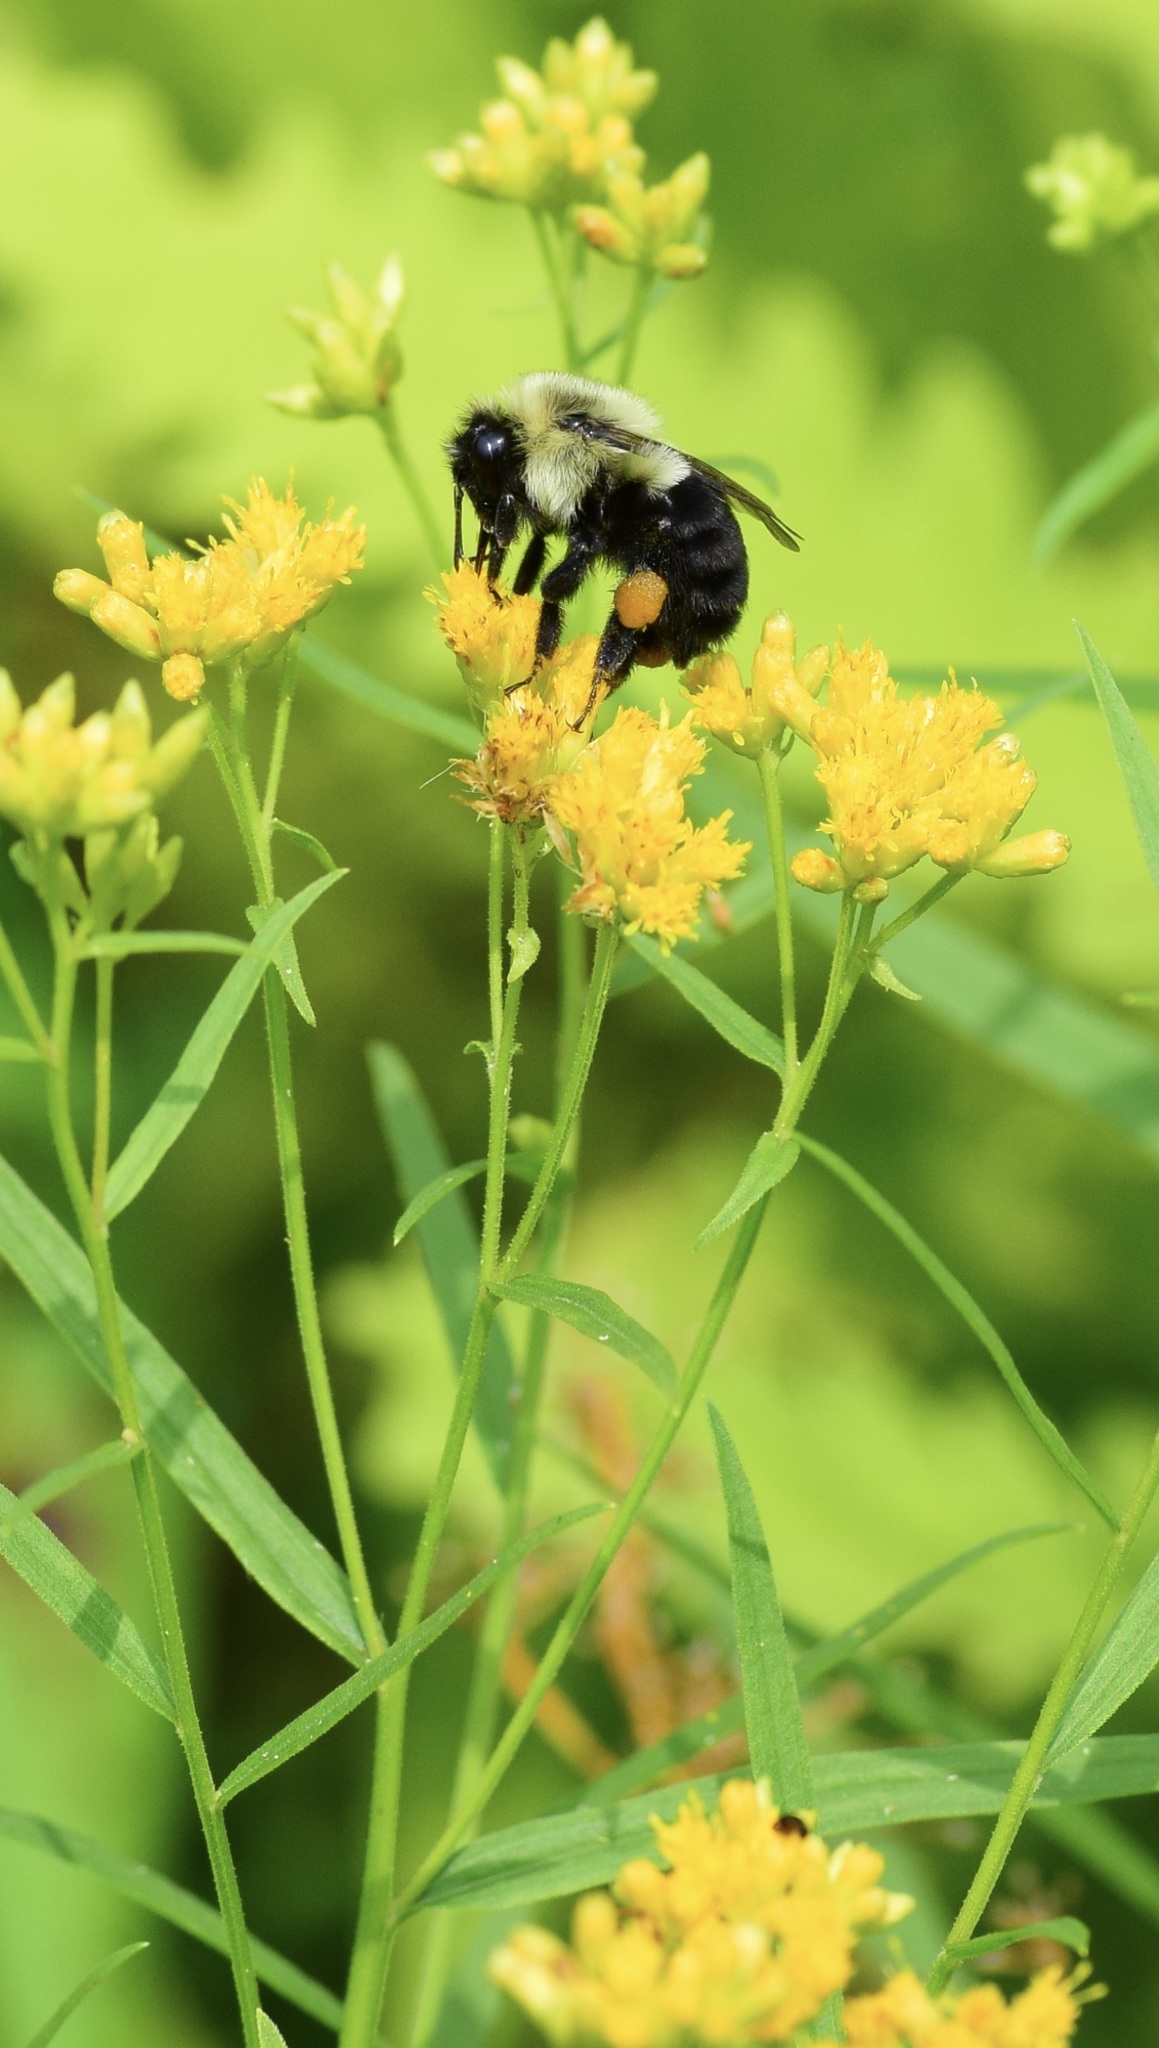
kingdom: Animalia
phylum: Arthropoda
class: Insecta
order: Hymenoptera
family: Apidae
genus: Bombus
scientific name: Bombus impatiens
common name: Common eastern bumble bee
